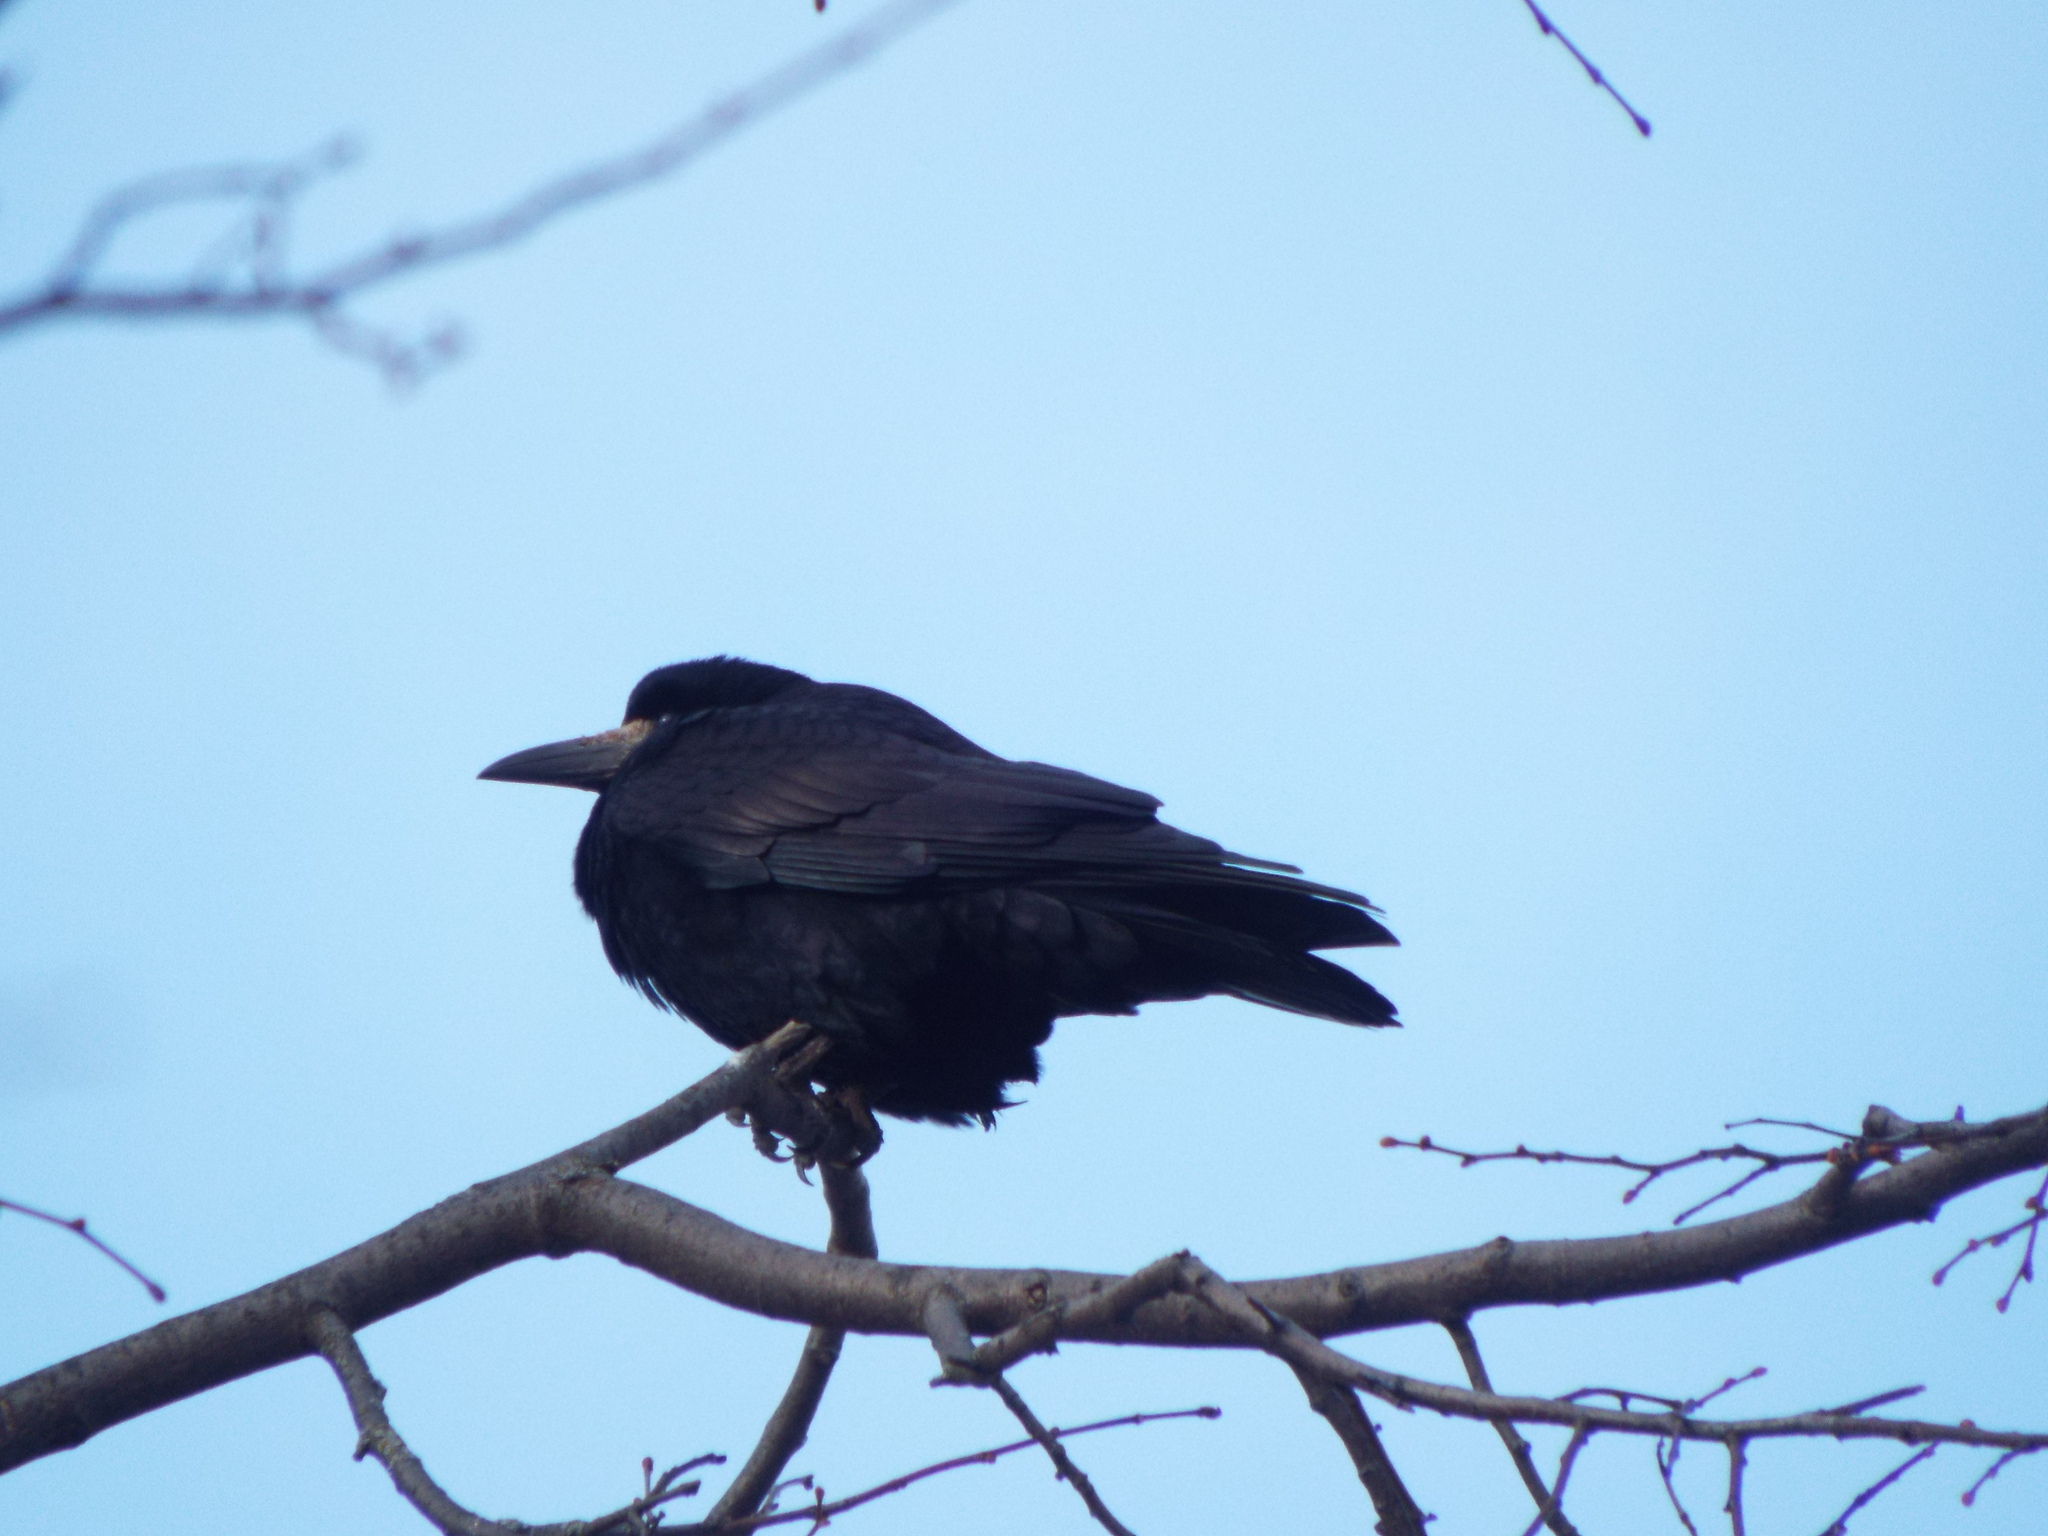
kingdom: Animalia
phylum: Chordata
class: Aves
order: Passeriformes
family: Corvidae
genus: Corvus
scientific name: Corvus frugilegus
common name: Rook
